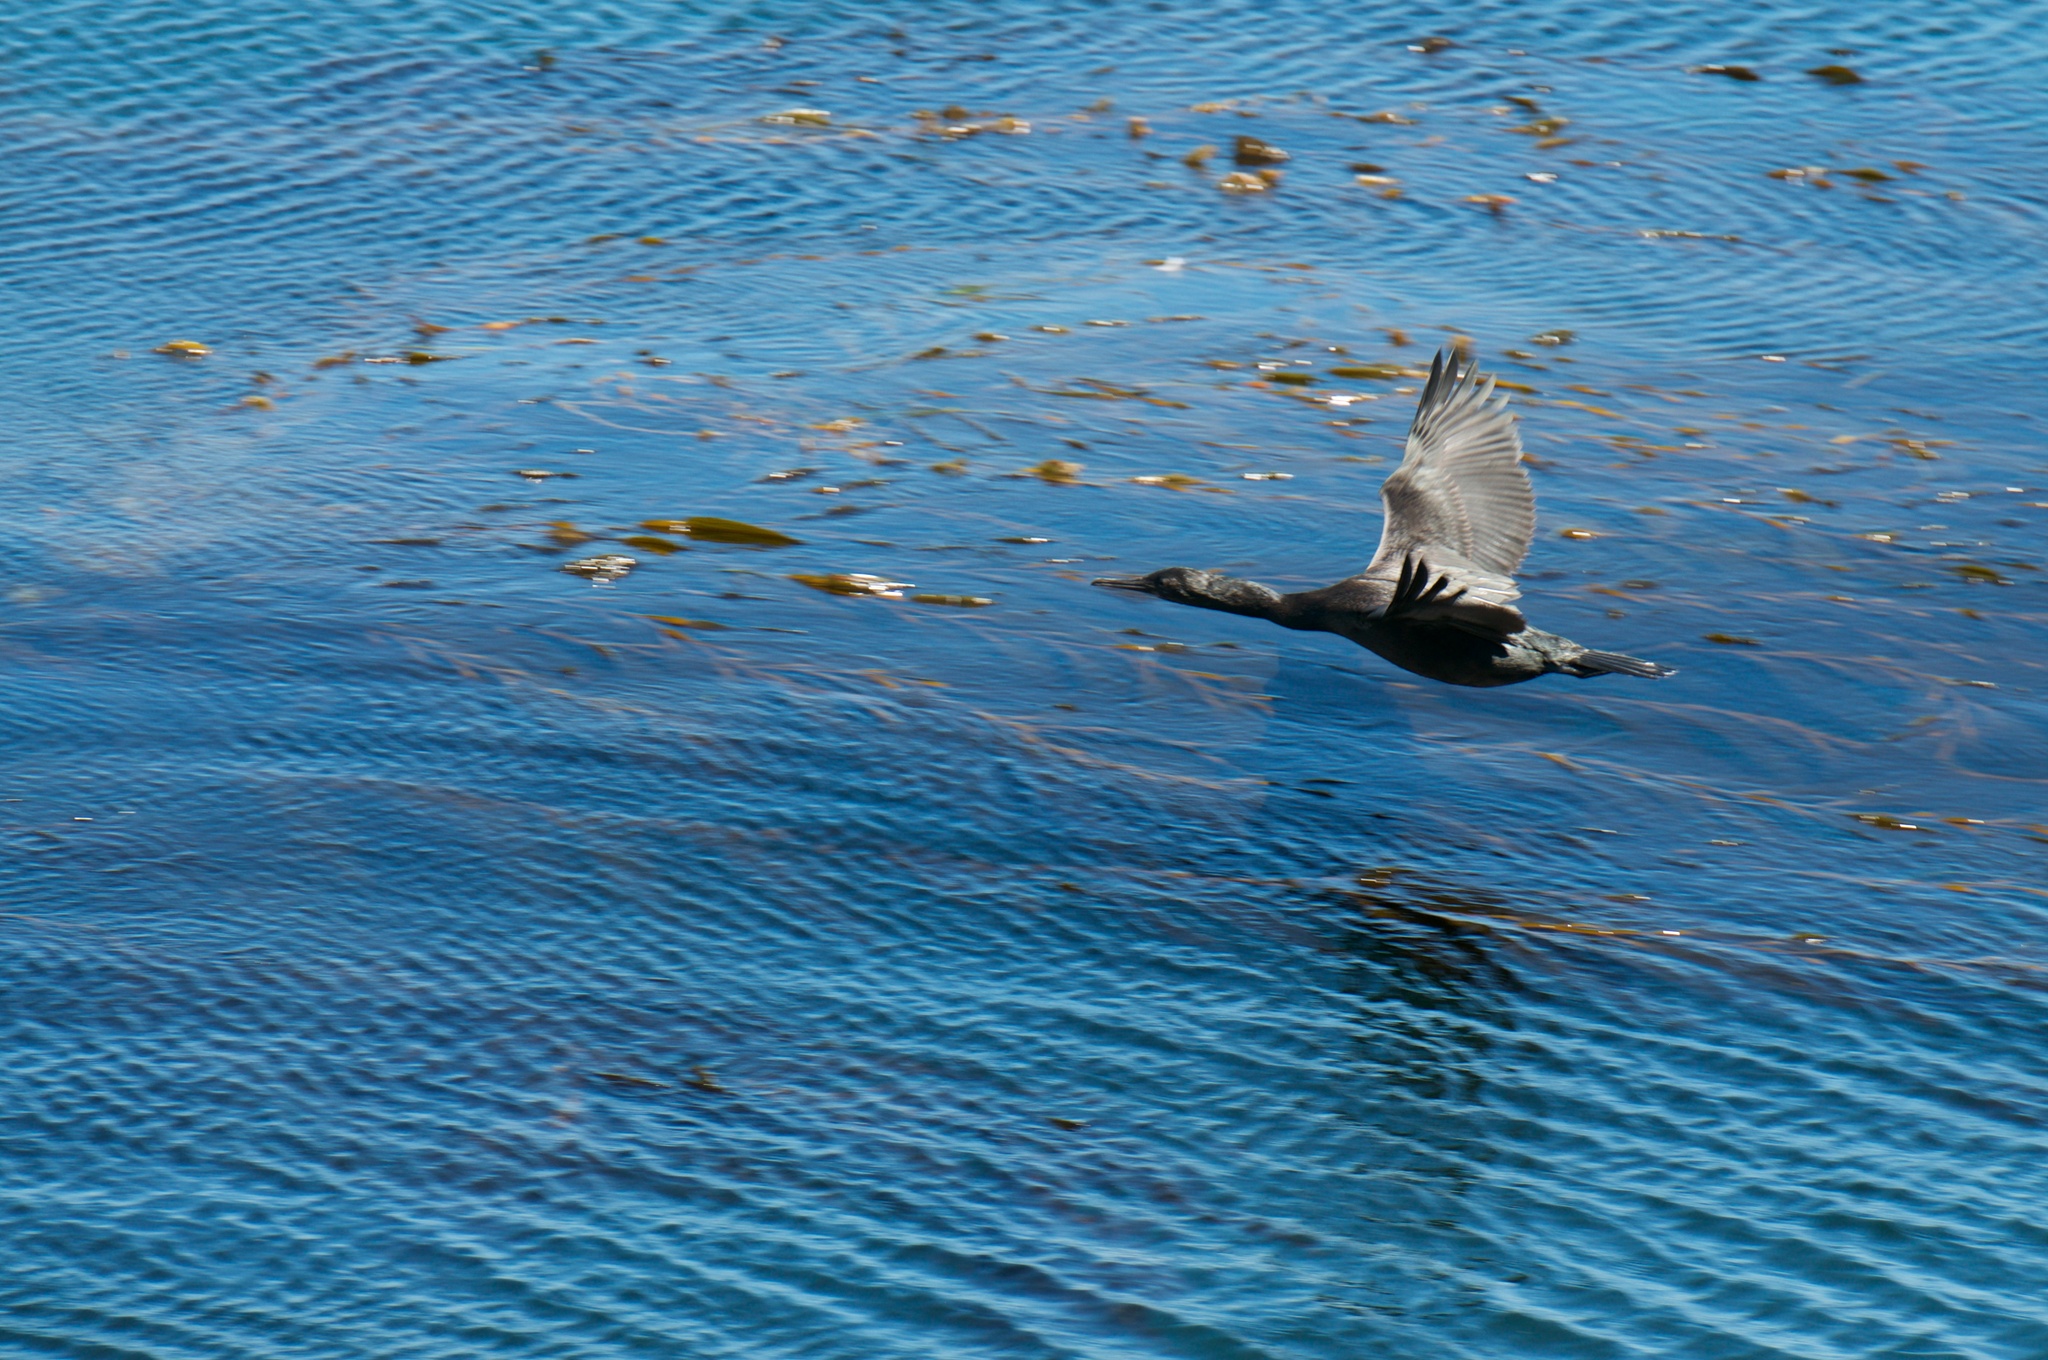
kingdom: Animalia
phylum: Chordata
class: Aves
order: Suliformes
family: Phalacrocoracidae
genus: Urile
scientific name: Urile penicillatus
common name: Brandt's cormorant
